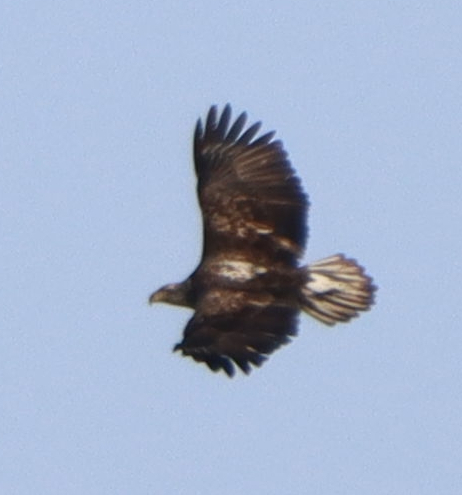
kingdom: Animalia
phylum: Chordata
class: Aves
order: Accipitriformes
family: Accipitridae
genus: Haliaeetus
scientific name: Haliaeetus leucocephalus
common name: Bald eagle
